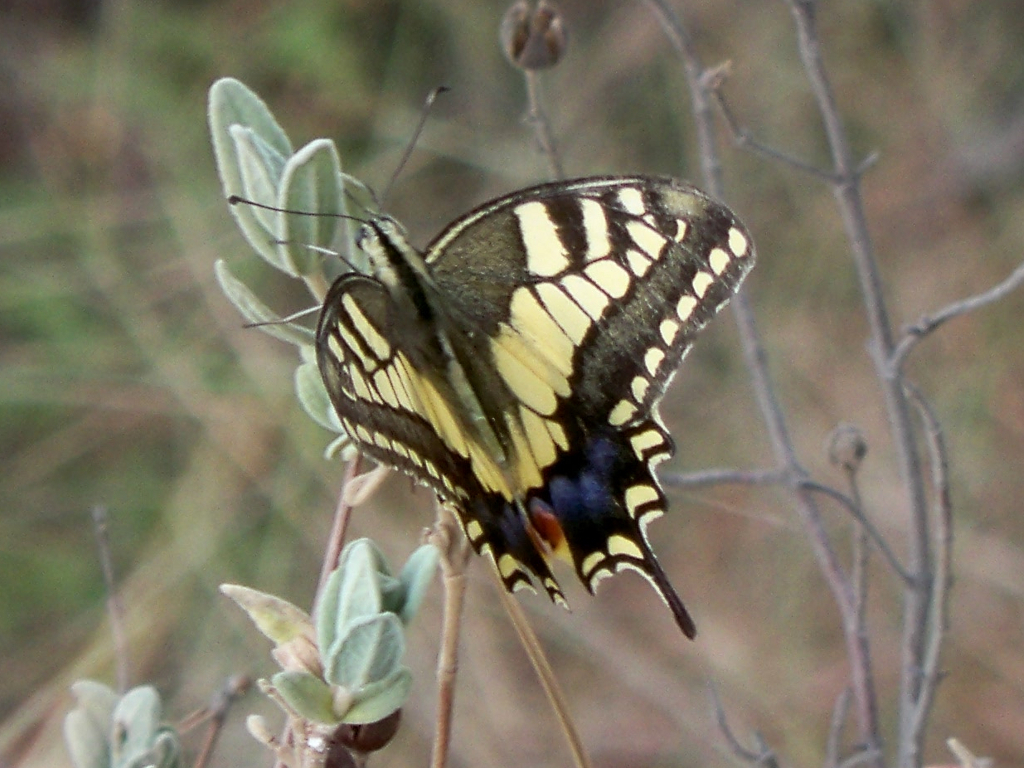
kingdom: Animalia
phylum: Arthropoda
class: Insecta
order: Lepidoptera
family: Papilionidae
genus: Papilio
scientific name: Papilio machaon
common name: Swallowtail
